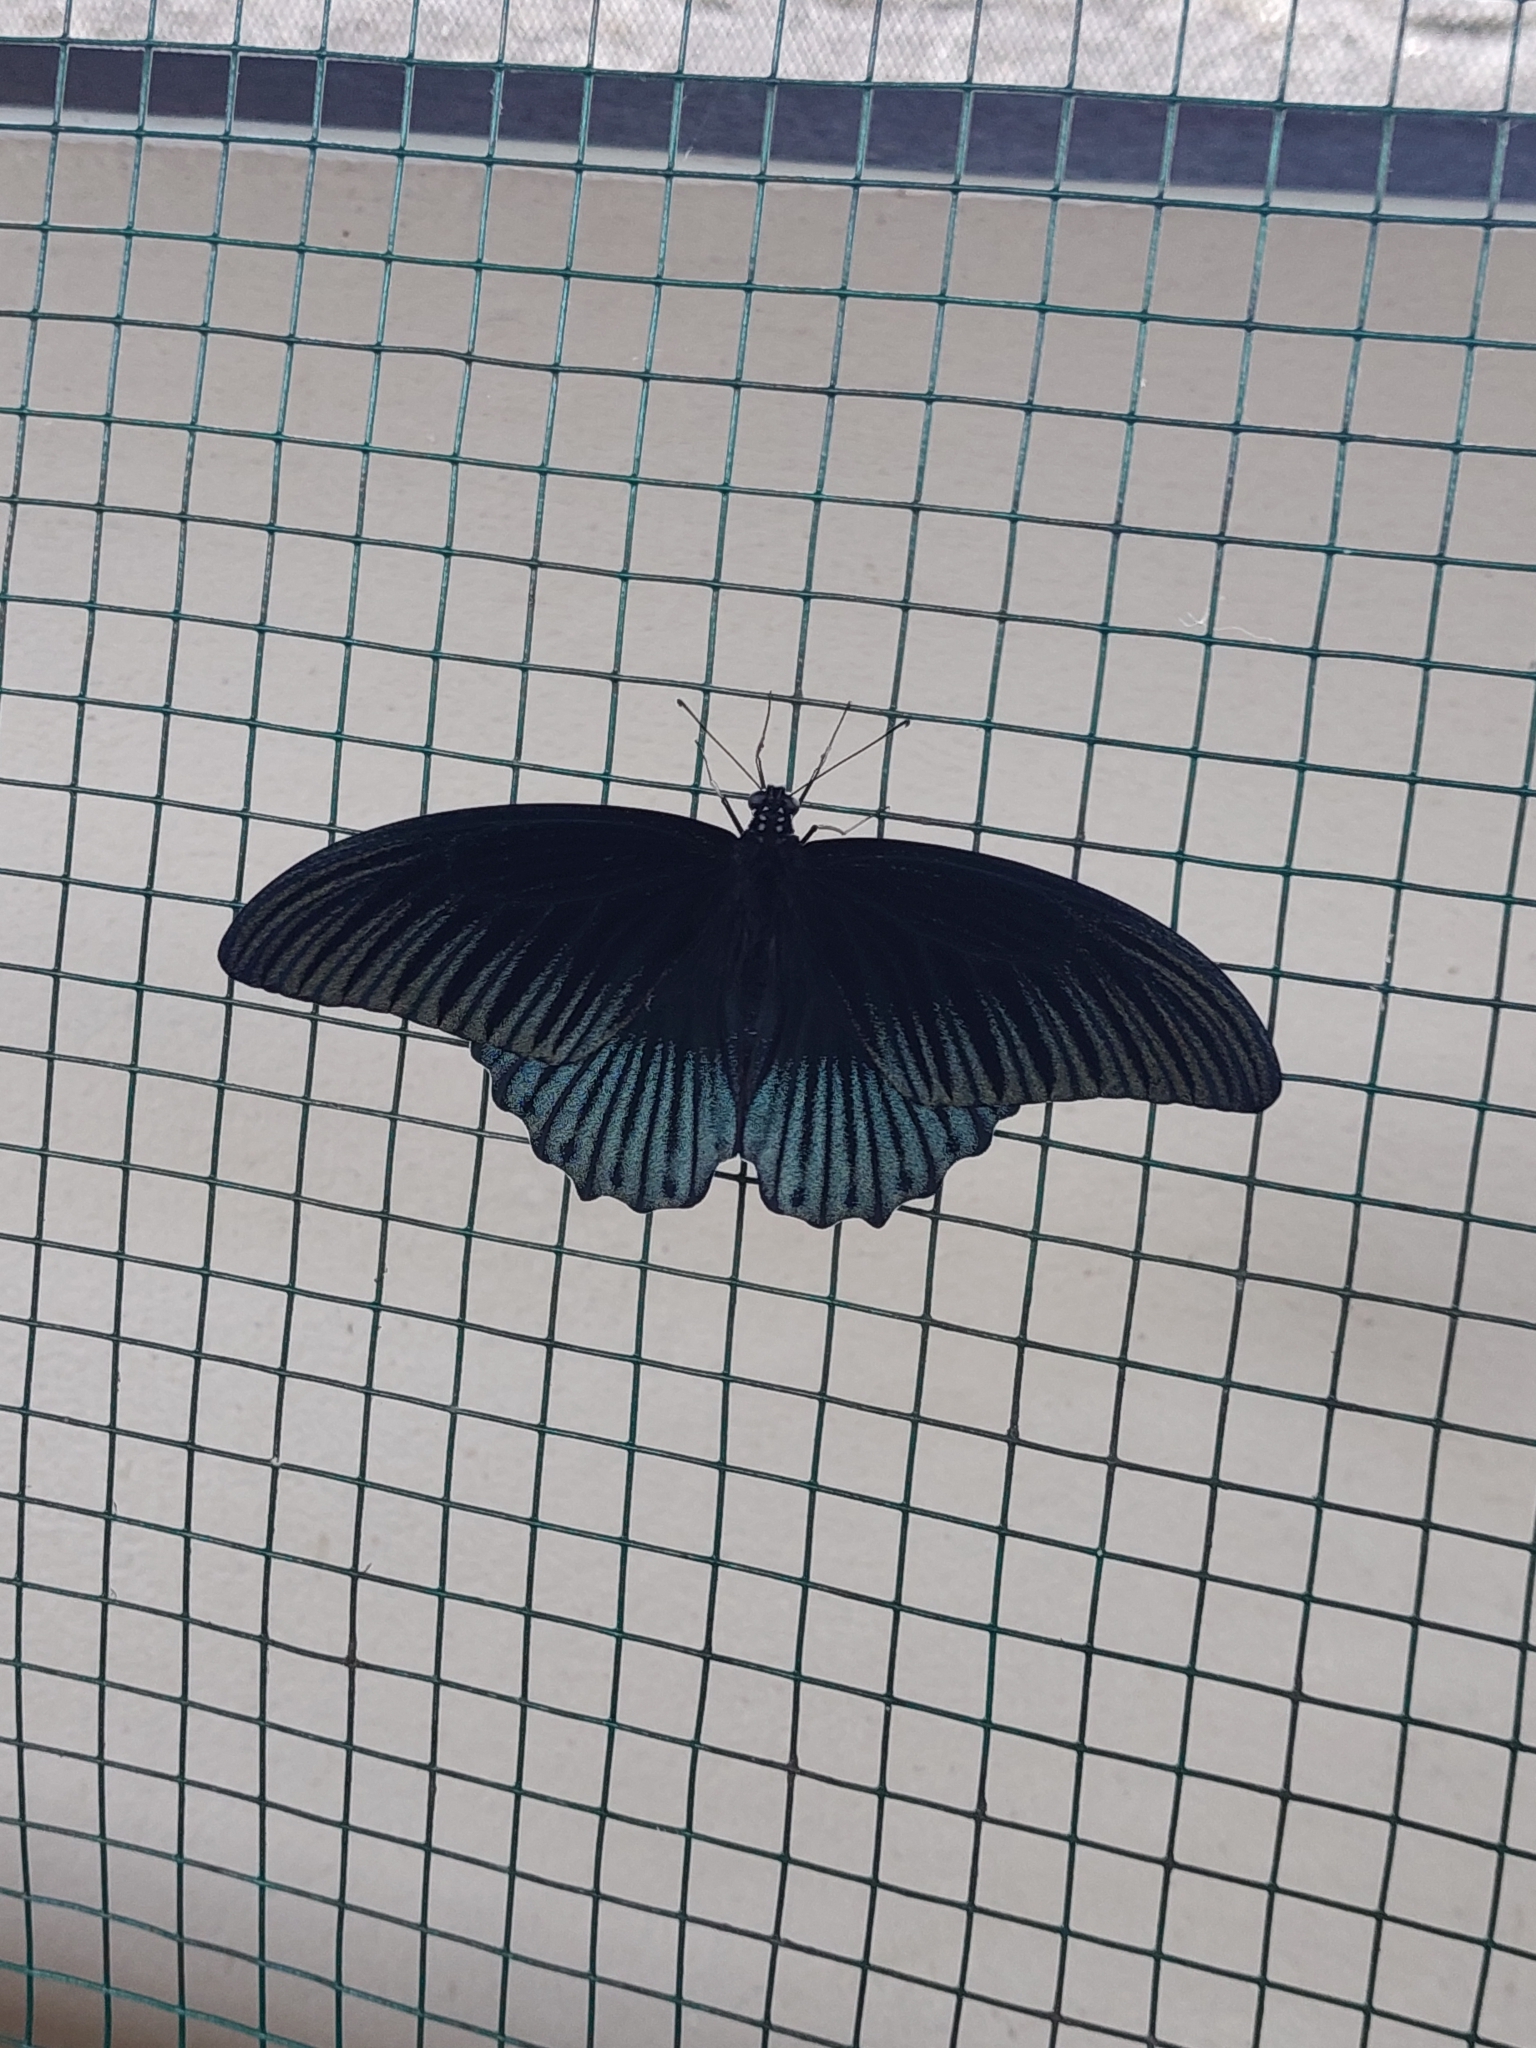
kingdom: Animalia
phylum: Arthropoda
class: Insecta
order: Lepidoptera
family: Papilionidae
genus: Papilio
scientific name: Papilio memnon
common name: Great mormon
